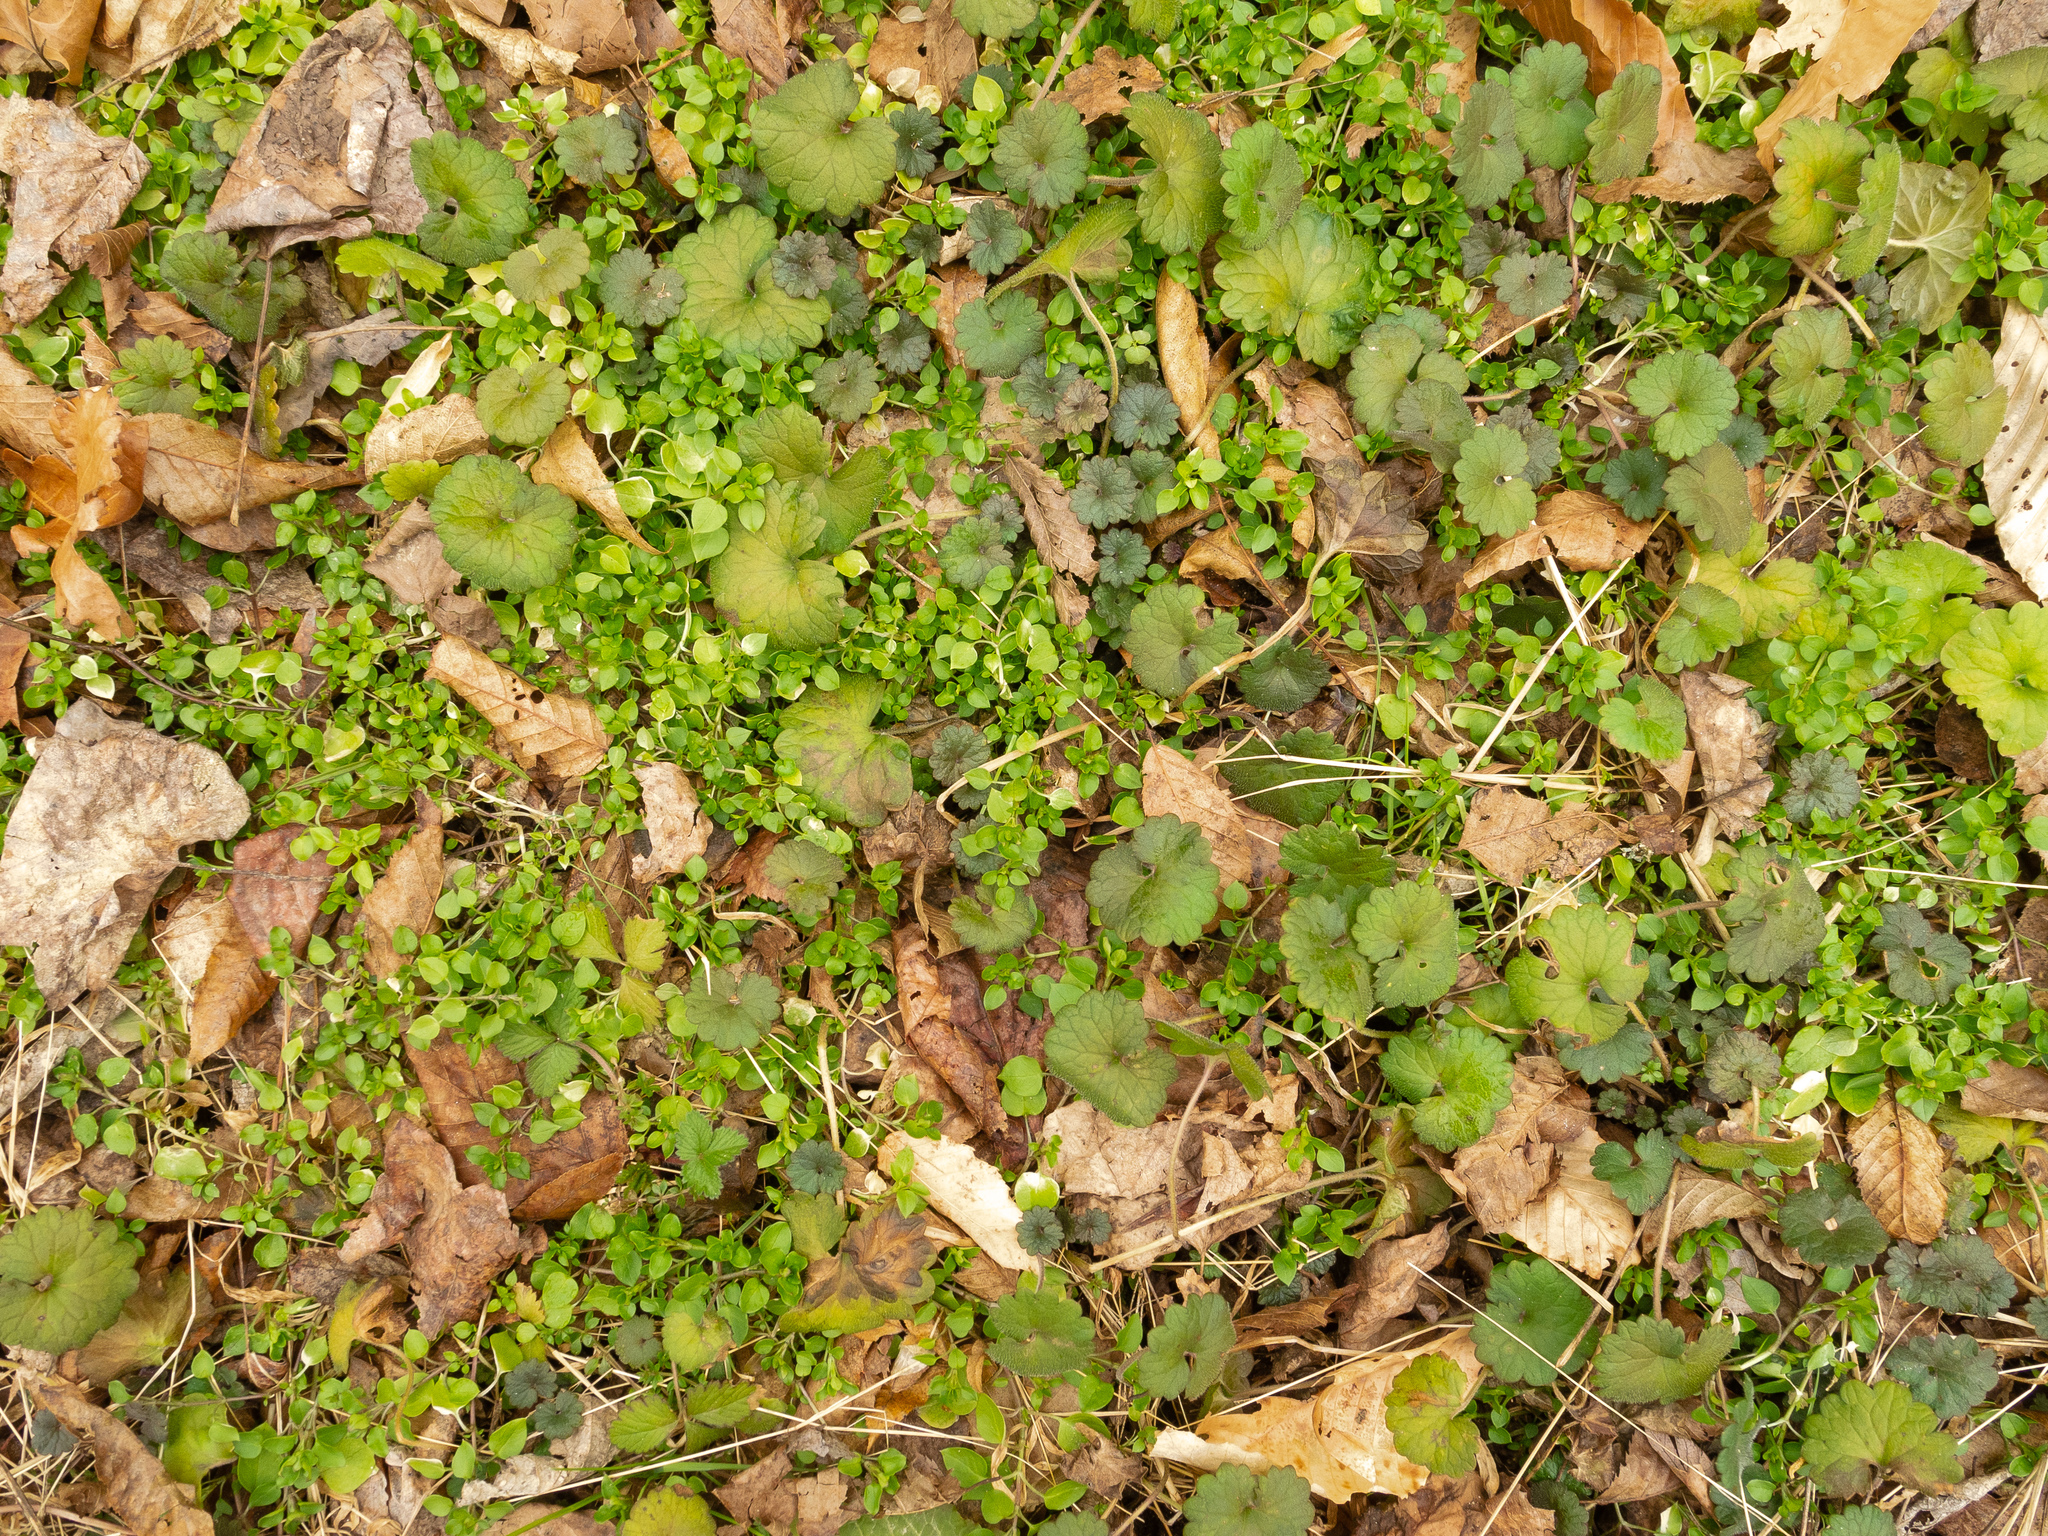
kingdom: Plantae
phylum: Tracheophyta
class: Magnoliopsida
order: Lamiales
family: Lamiaceae
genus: Glechoma
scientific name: Glechoma hederacea
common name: Ground ivy
